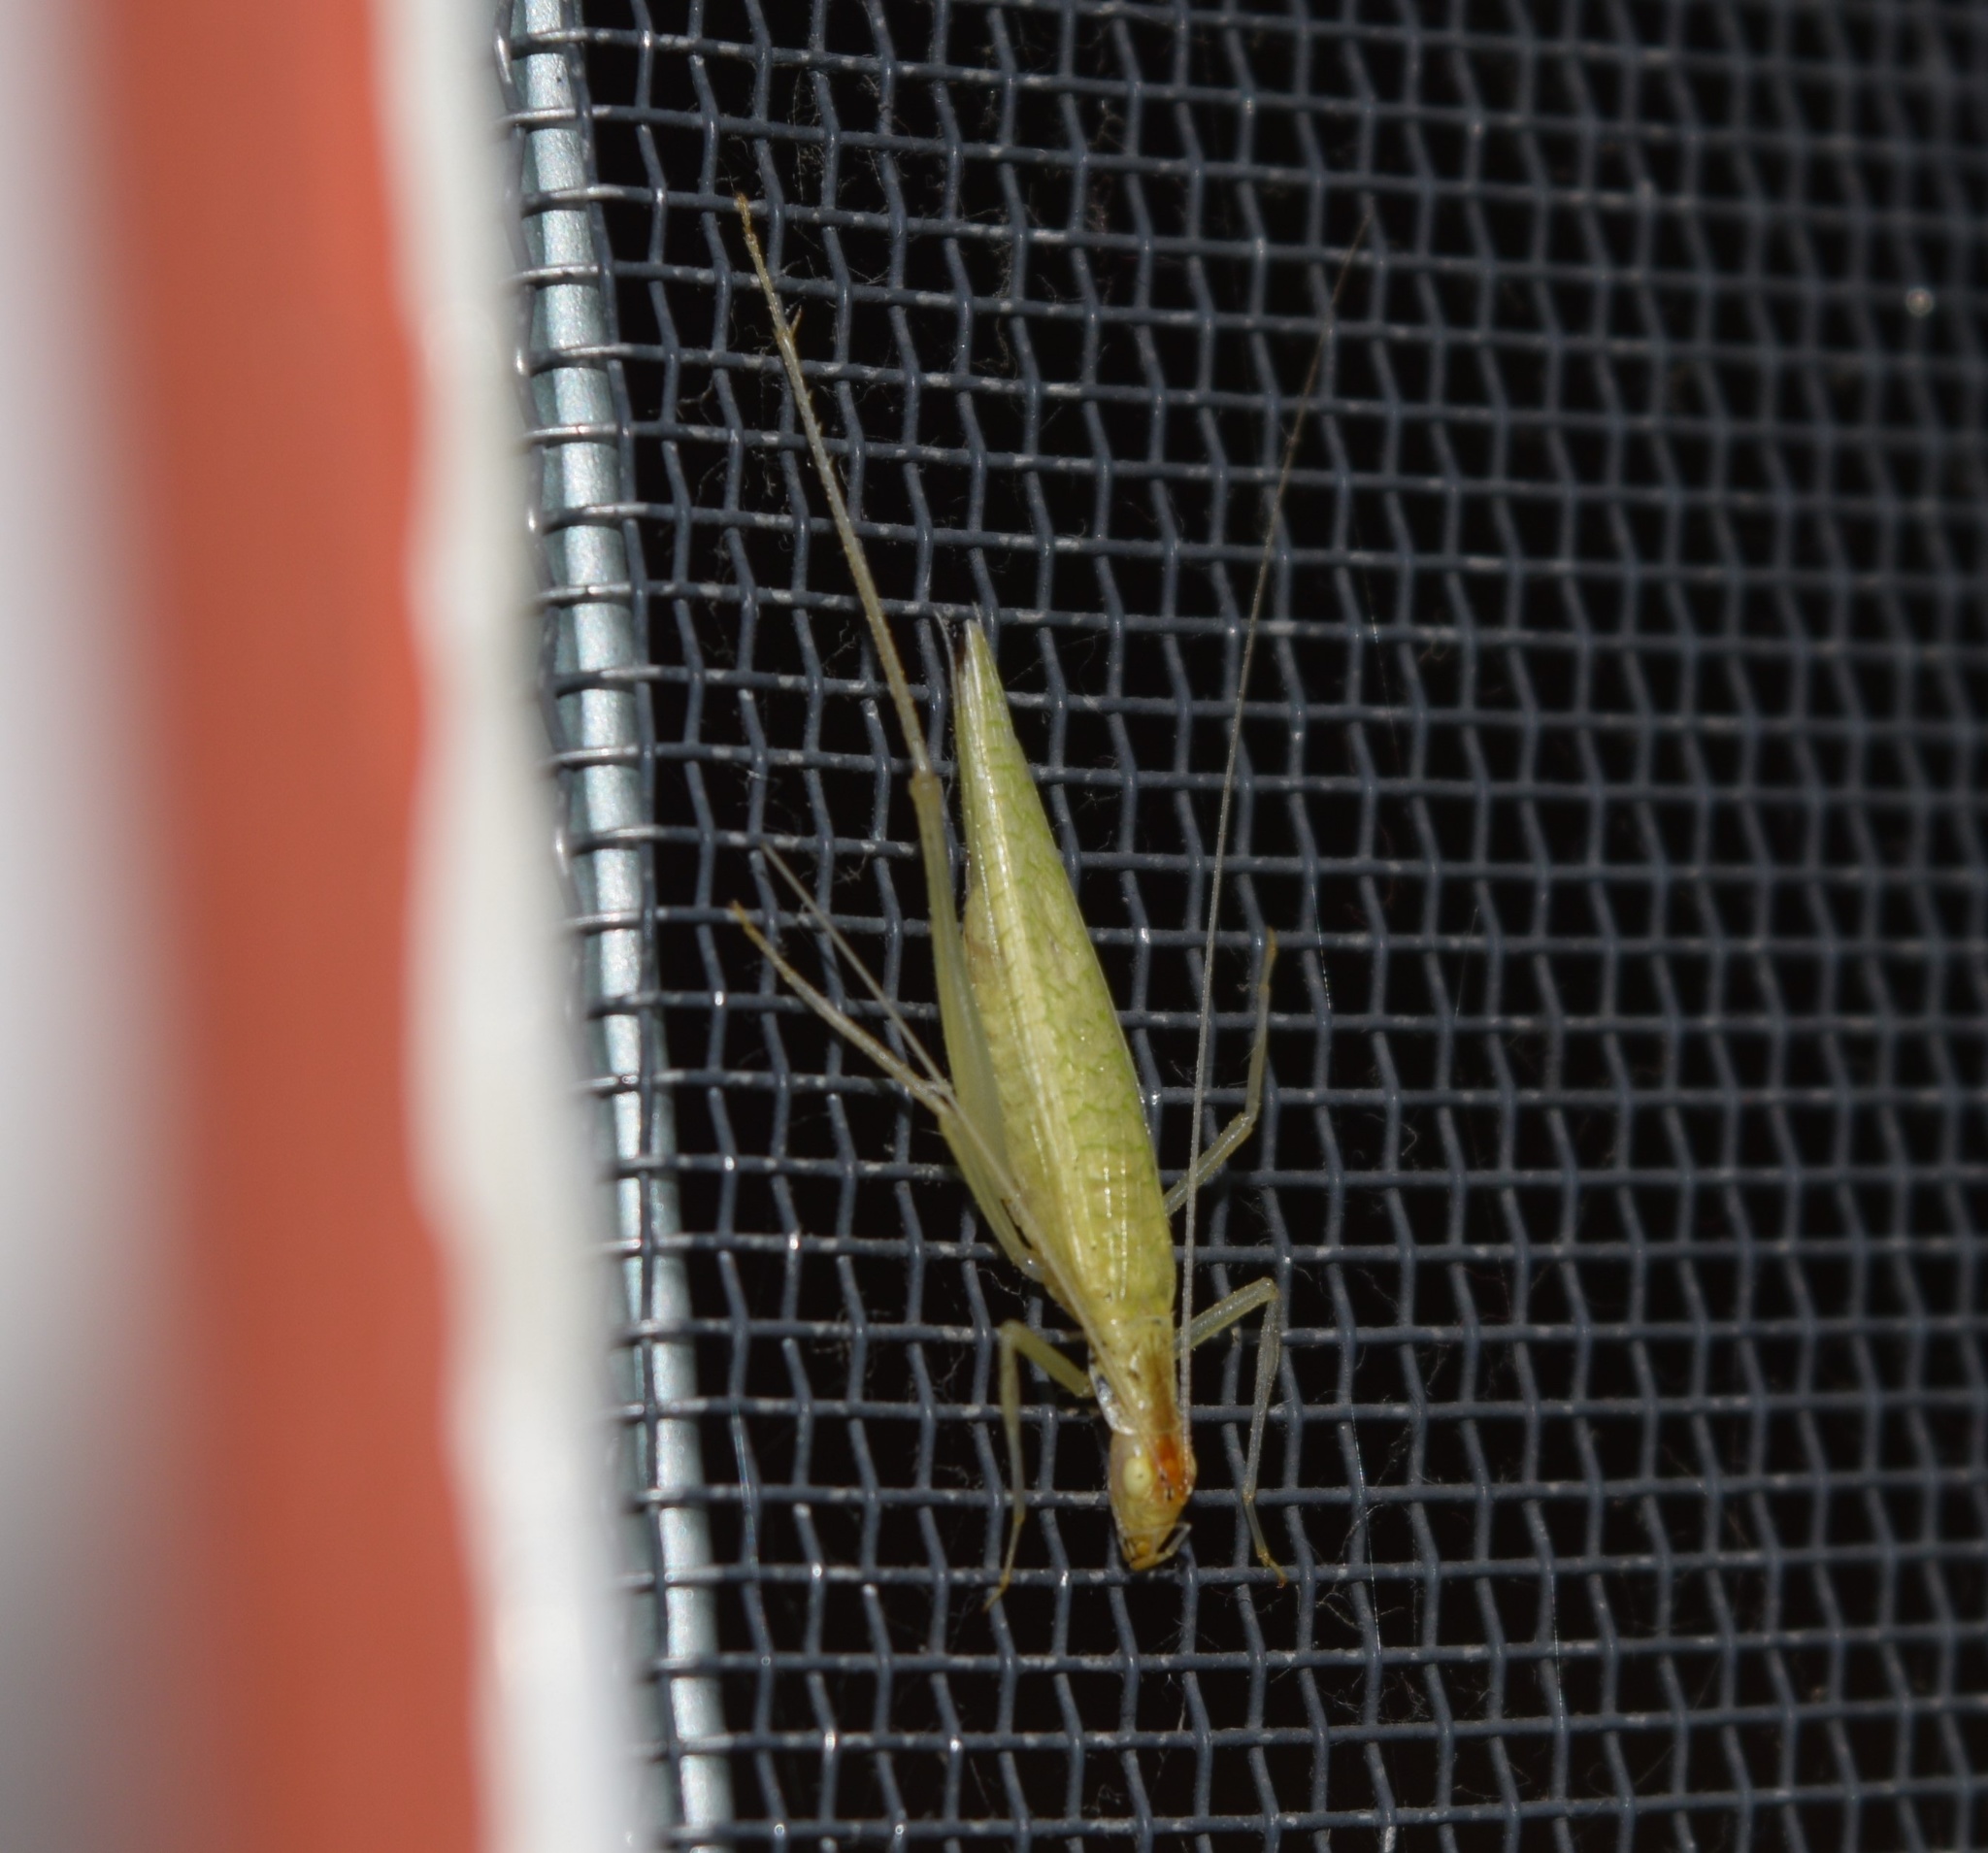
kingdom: Animalia
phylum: Arthropoda
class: Insecta
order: Orthoptera
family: Gryllidae
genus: Oecanthus
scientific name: Oecanthus niveus
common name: Narrow-winged tree cricket
